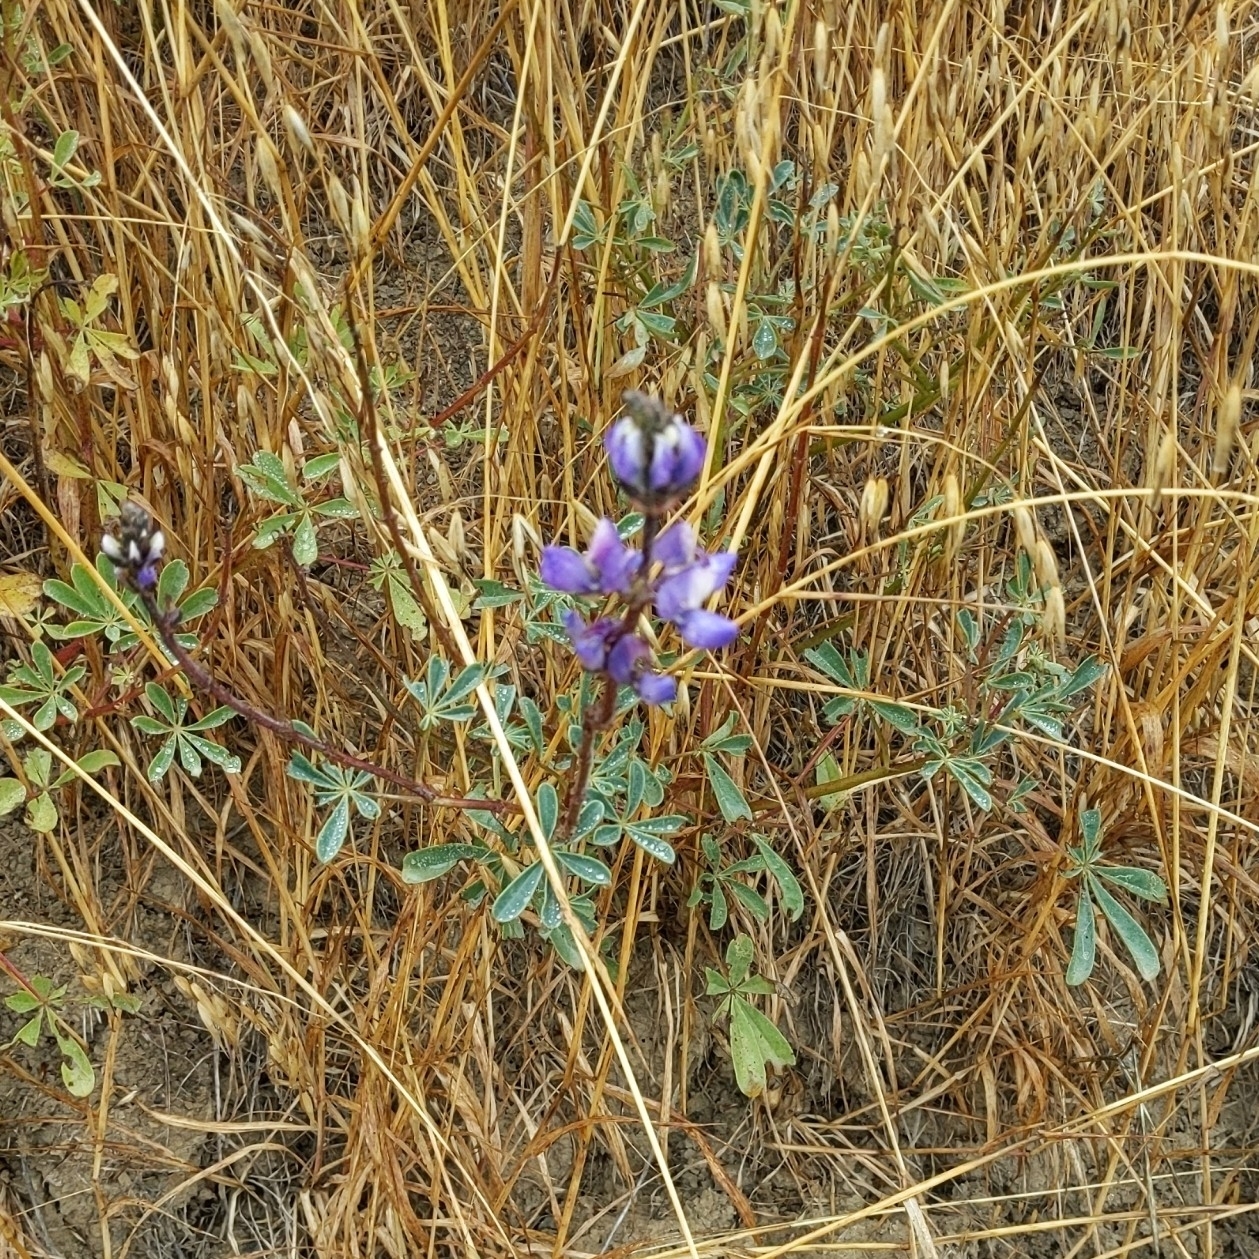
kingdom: Plantae
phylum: Tracheophyta
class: Magnoliopsida
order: Fabales
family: Fabaceae
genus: Lupinus
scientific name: Lupinus succulentus
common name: Arroyo lupine
